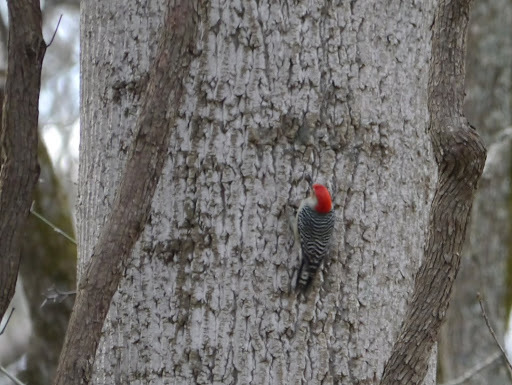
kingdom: Animalia
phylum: Chordata
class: Aves
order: Piciformes
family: Picidae
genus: Melanerpes
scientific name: Melanerpes carolinus
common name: Red-bellied woodpecker
